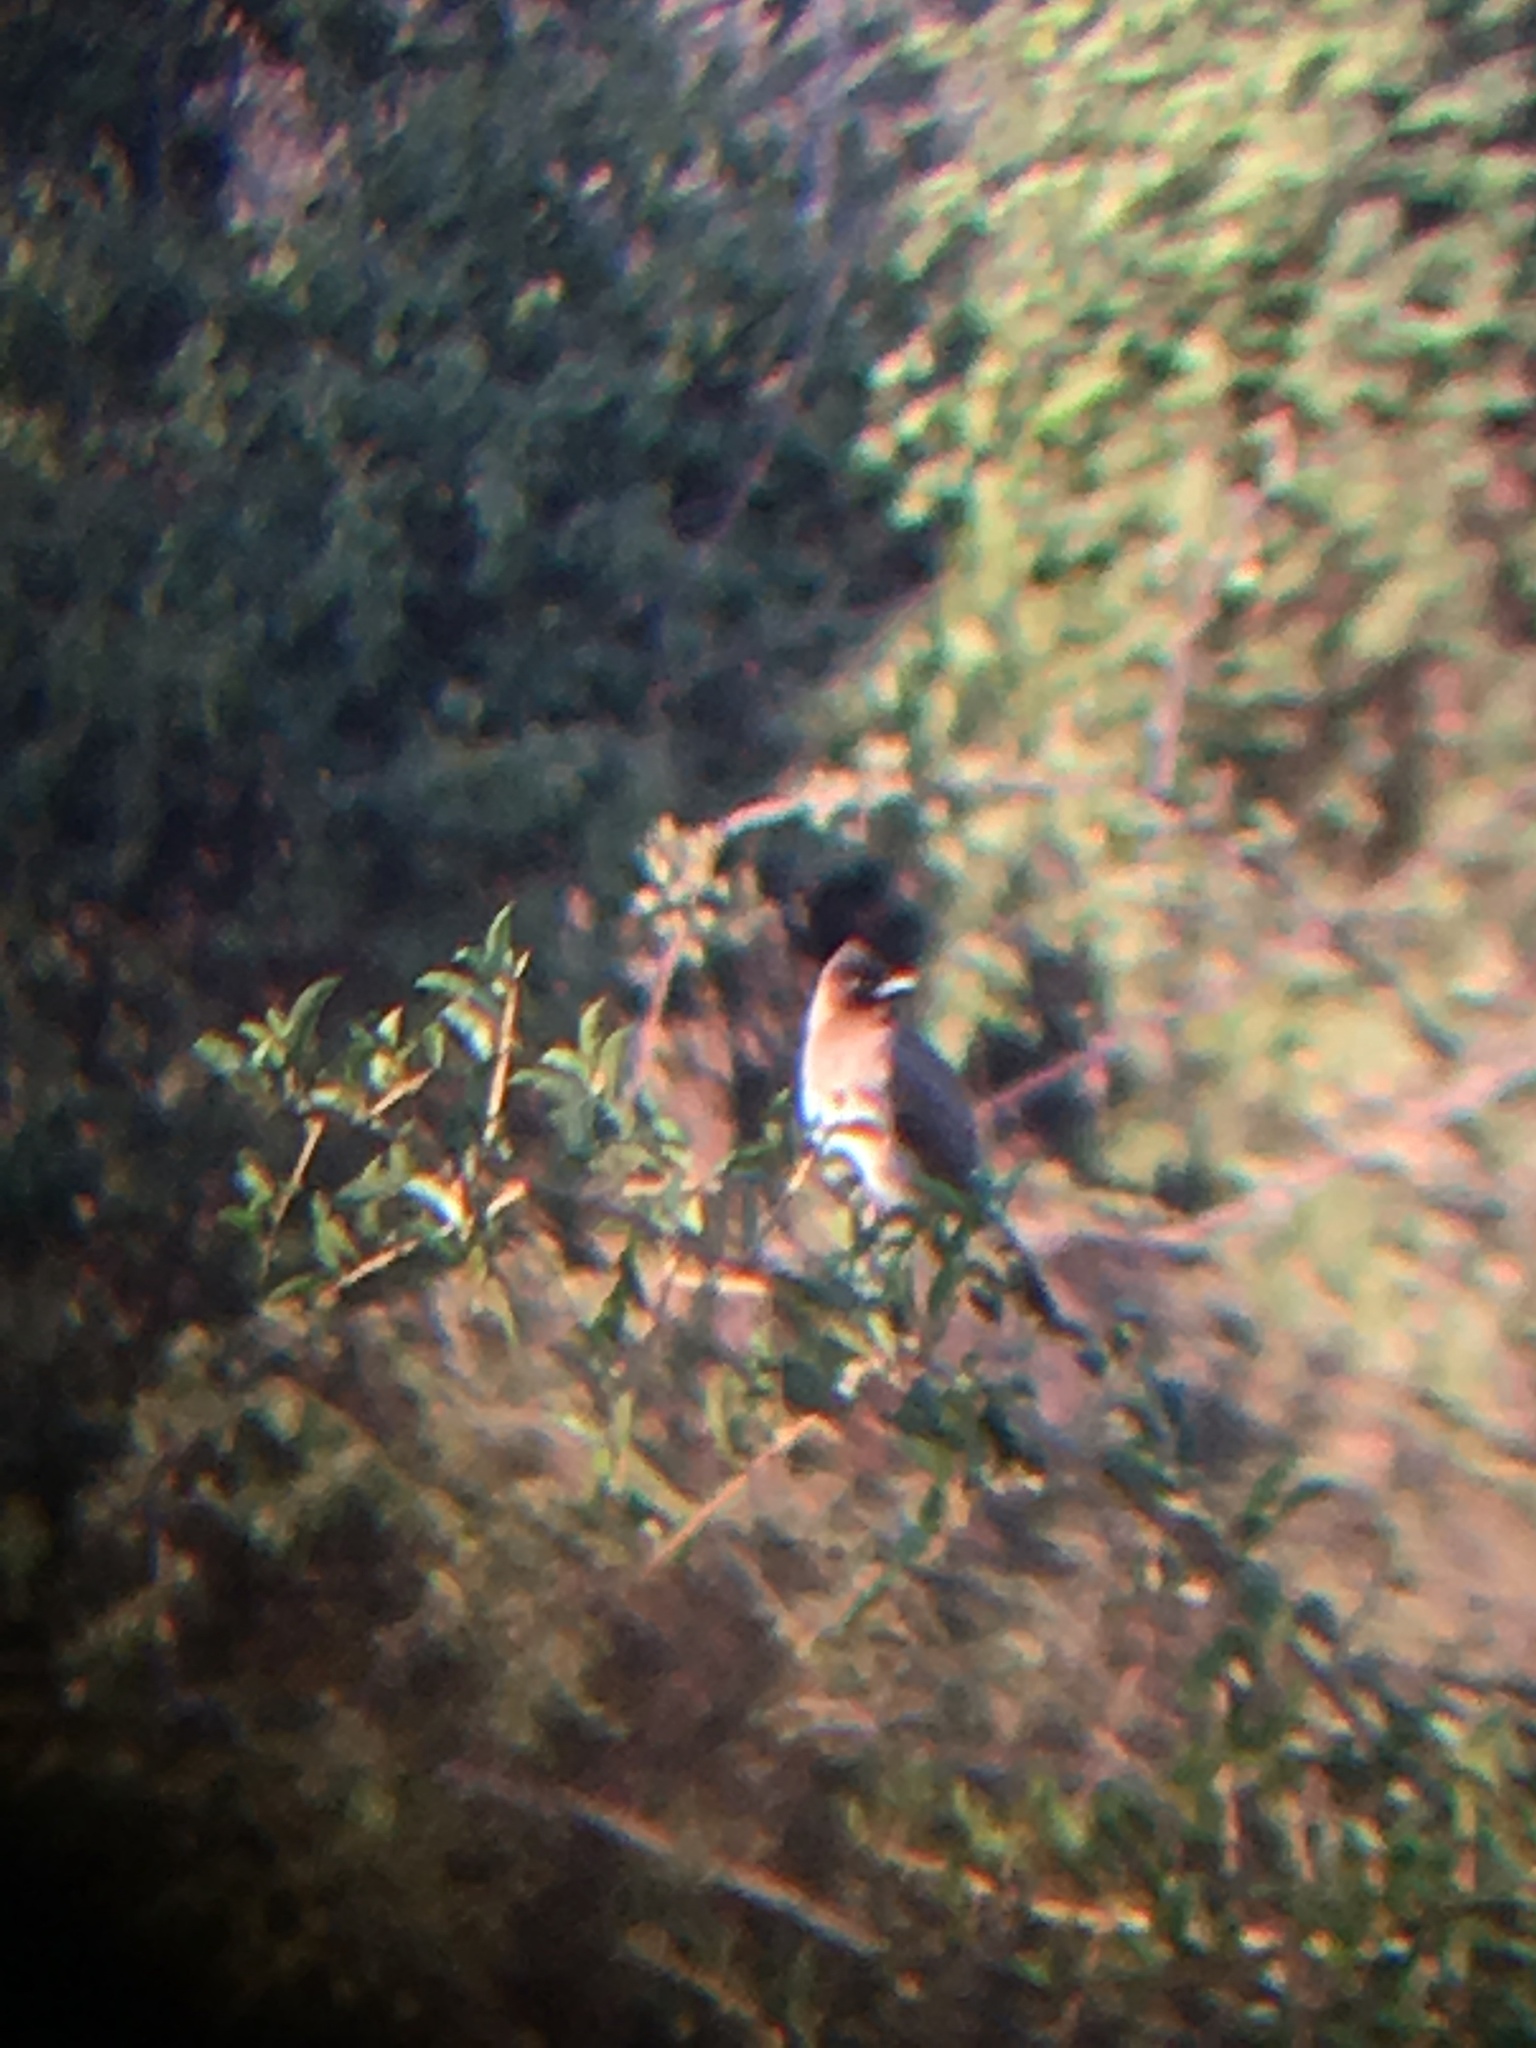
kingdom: Animalia
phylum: Chordata
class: Aves
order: Passeriformes
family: Pycnonotidae
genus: Pycnonotus
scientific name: Pycnonotus barbatus
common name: Common bulbul
